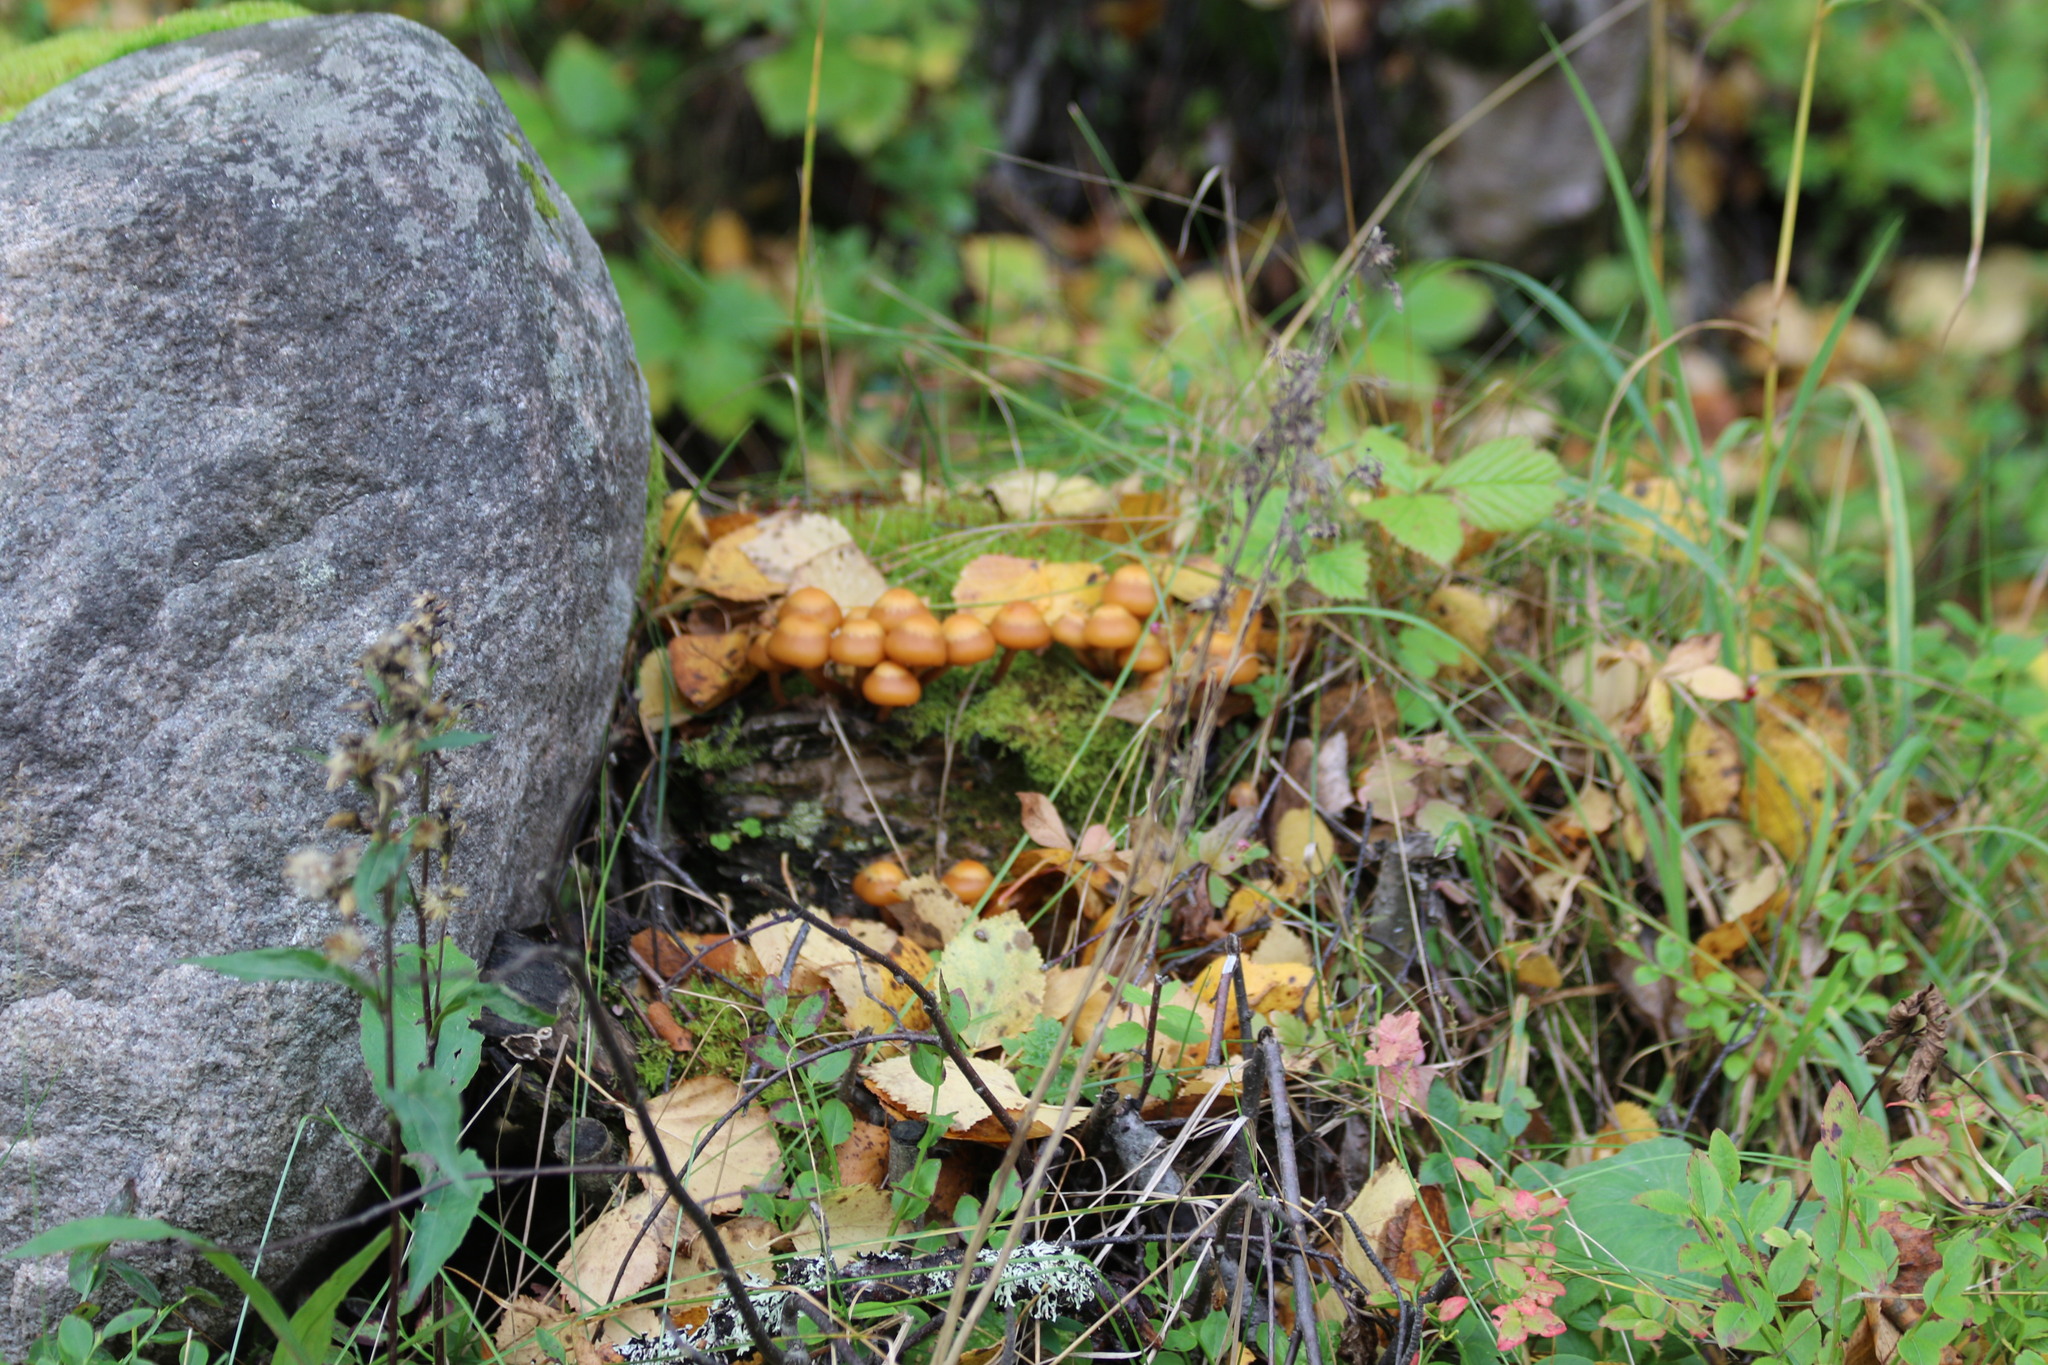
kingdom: Fungi
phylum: Basidiomycota
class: Agaricomycetes
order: Agaricales
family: Strophariaceae
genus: Kuehneromyces
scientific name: Kuehneromyces mutabilis
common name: Sheathed woodtuft
